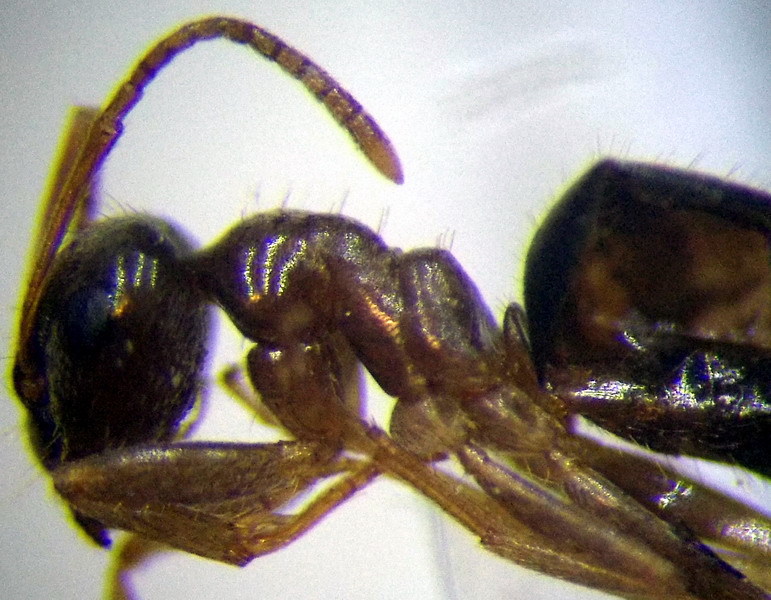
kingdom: Animalia
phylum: Arthropoda
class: Insecta
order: Hymenoptera
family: Formicidae
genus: Lasius
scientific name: Lasius alienus
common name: Alien field ant
